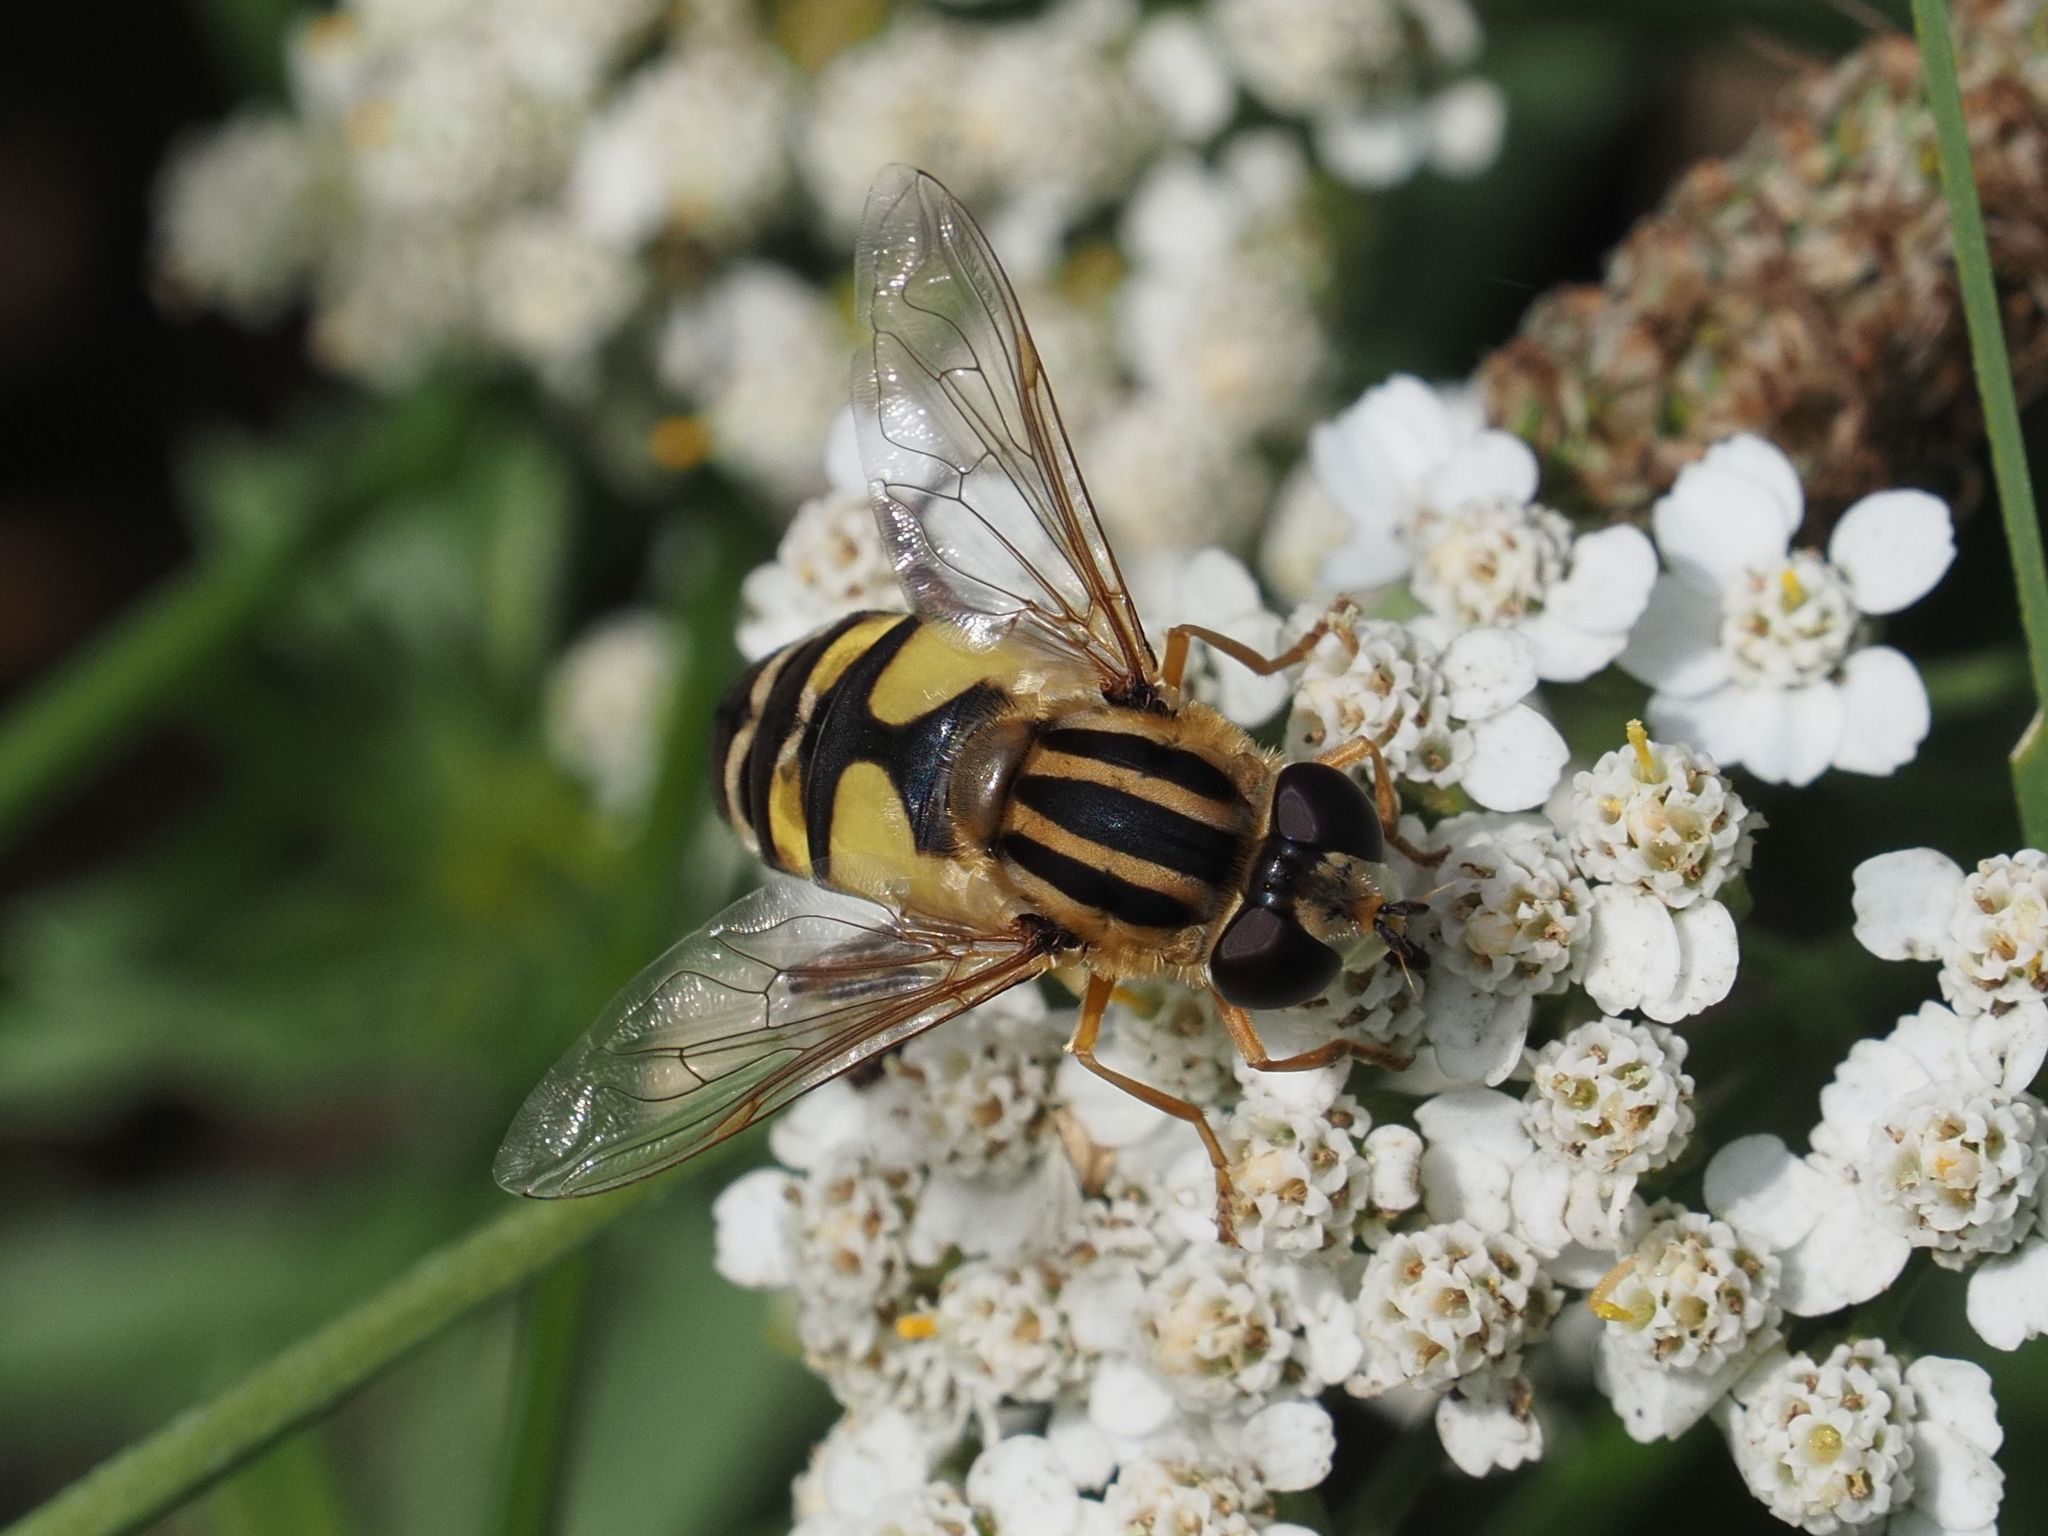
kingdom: Animalia
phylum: Arthropoda
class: Insecta
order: Diptera
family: Syrphidae
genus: Helophilus
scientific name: Helophilus trivittatus
